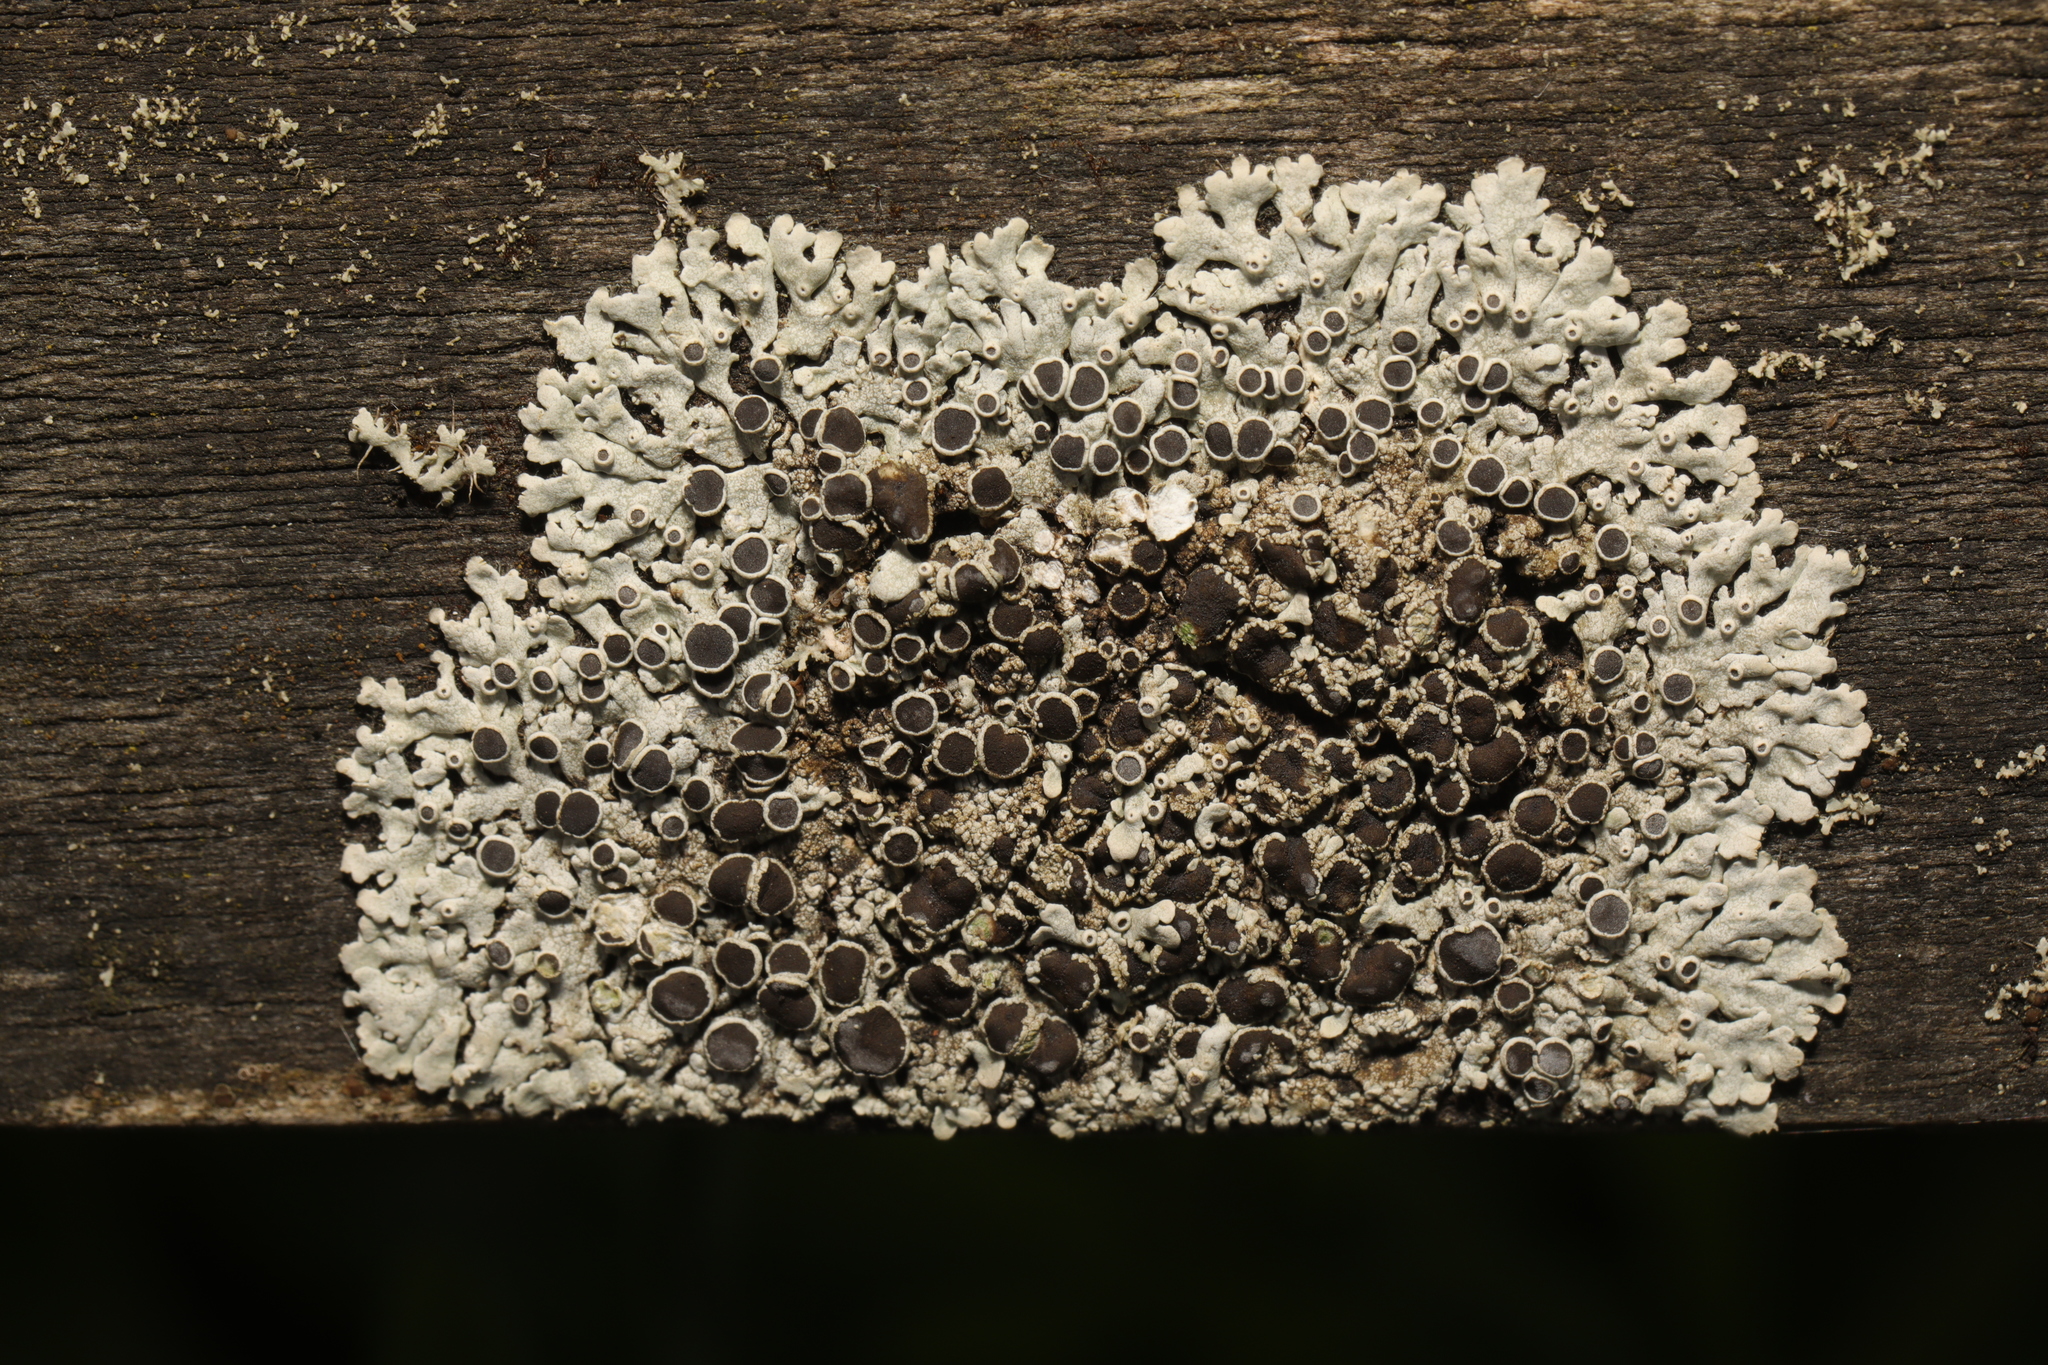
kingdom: Fungi
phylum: Ascomycota
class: Lecanoromycetes
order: Caliciales
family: Physciaceae
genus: Physcia
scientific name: Physcia aipolia
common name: Hoary rosette lichen
